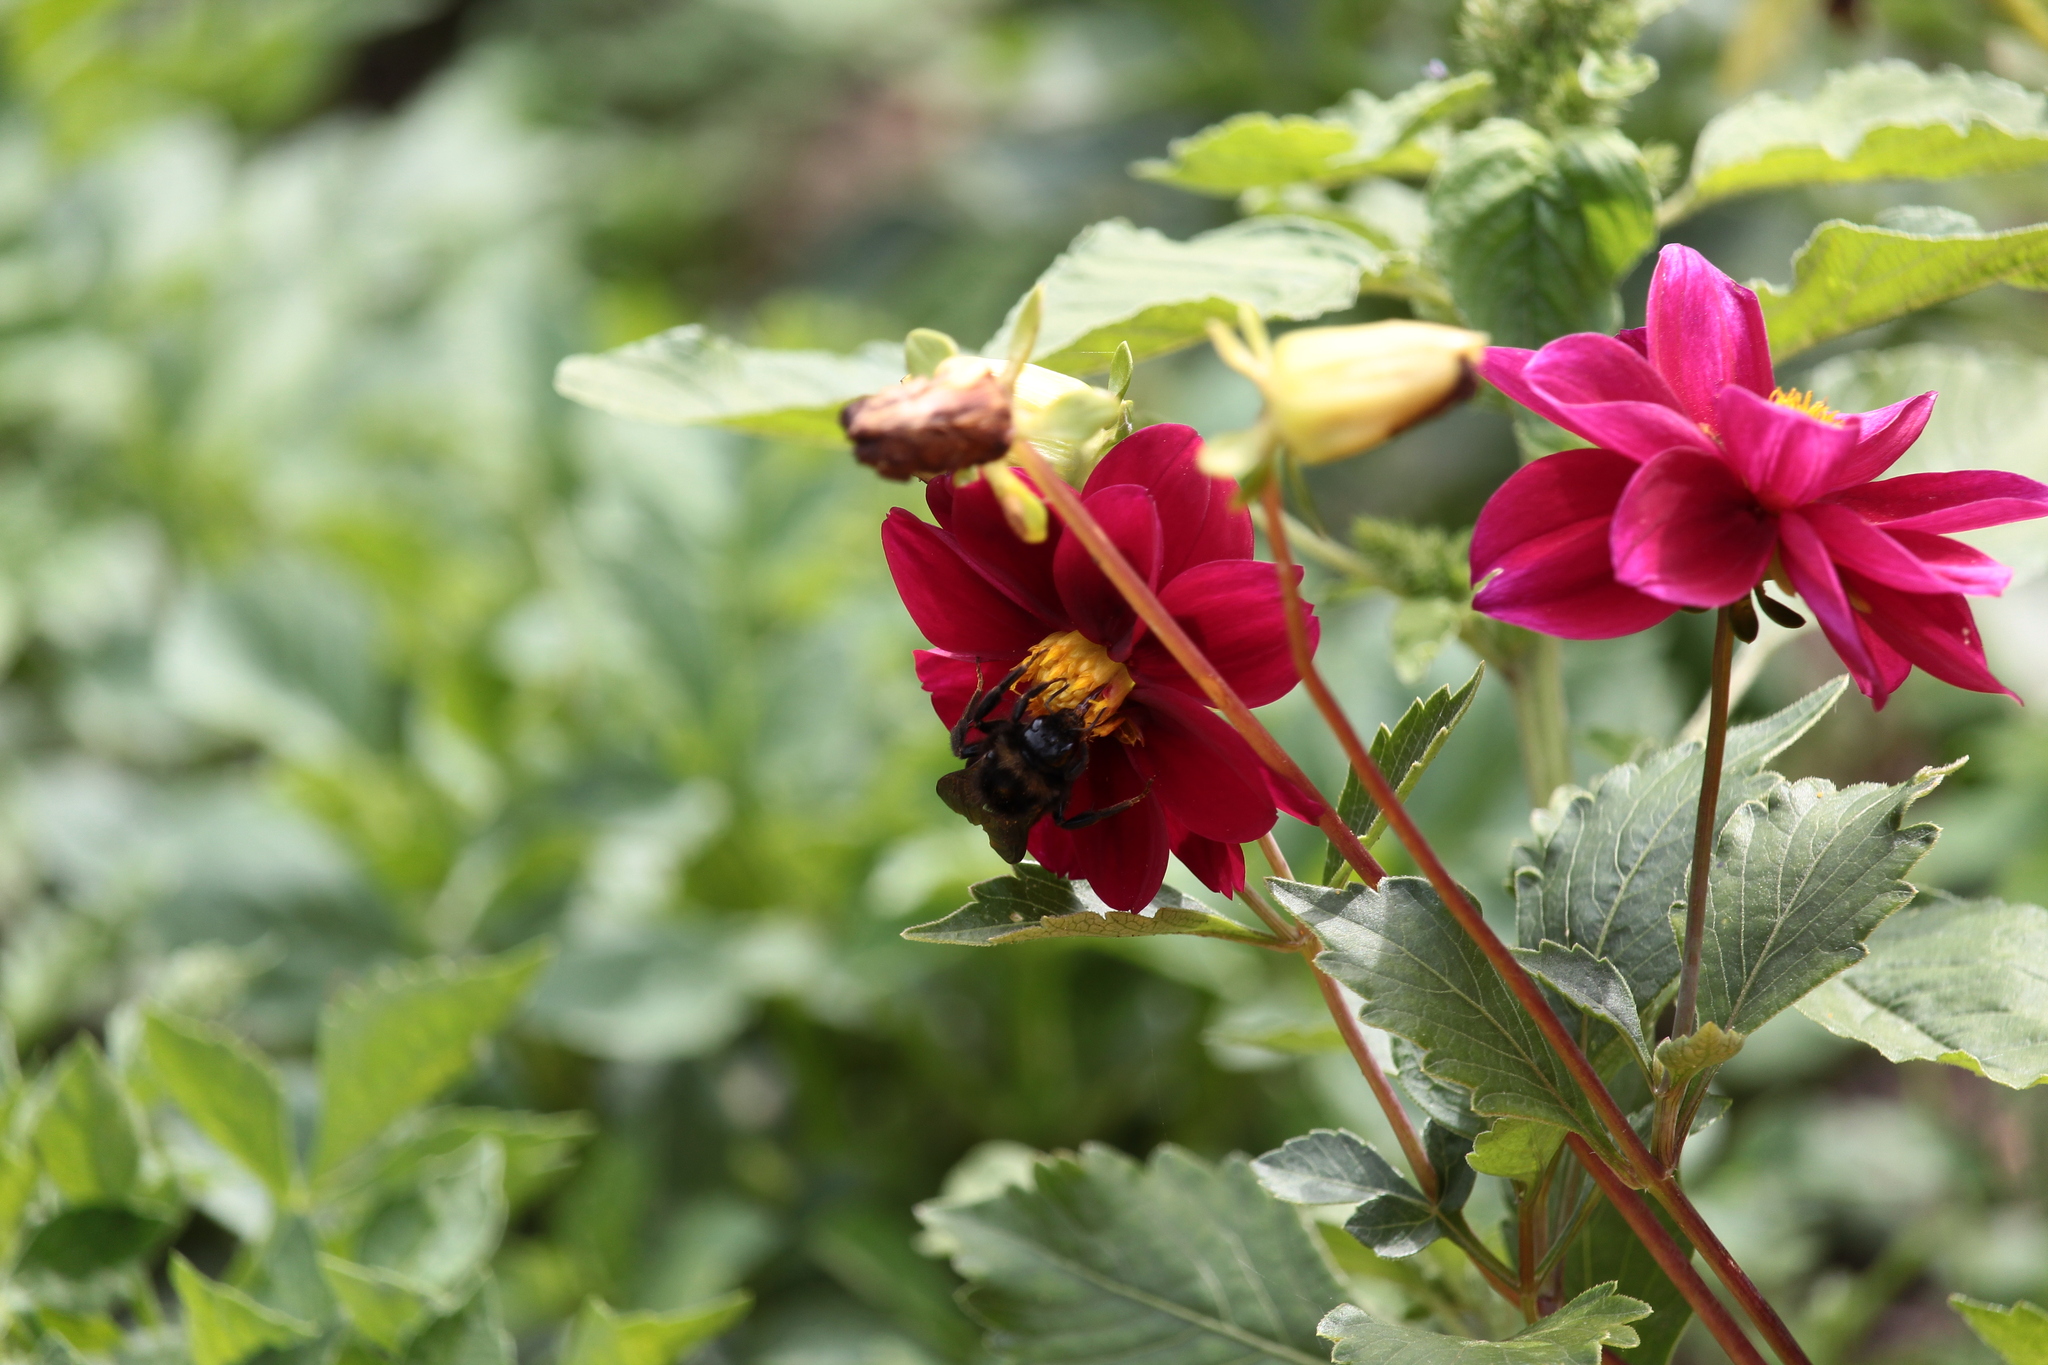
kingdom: Animalia
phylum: Arthropoda
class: Insecta
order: Hymenoptera
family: Apidae
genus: Bombus
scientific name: Bombus rupestris
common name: Hill cuckoo-bee
